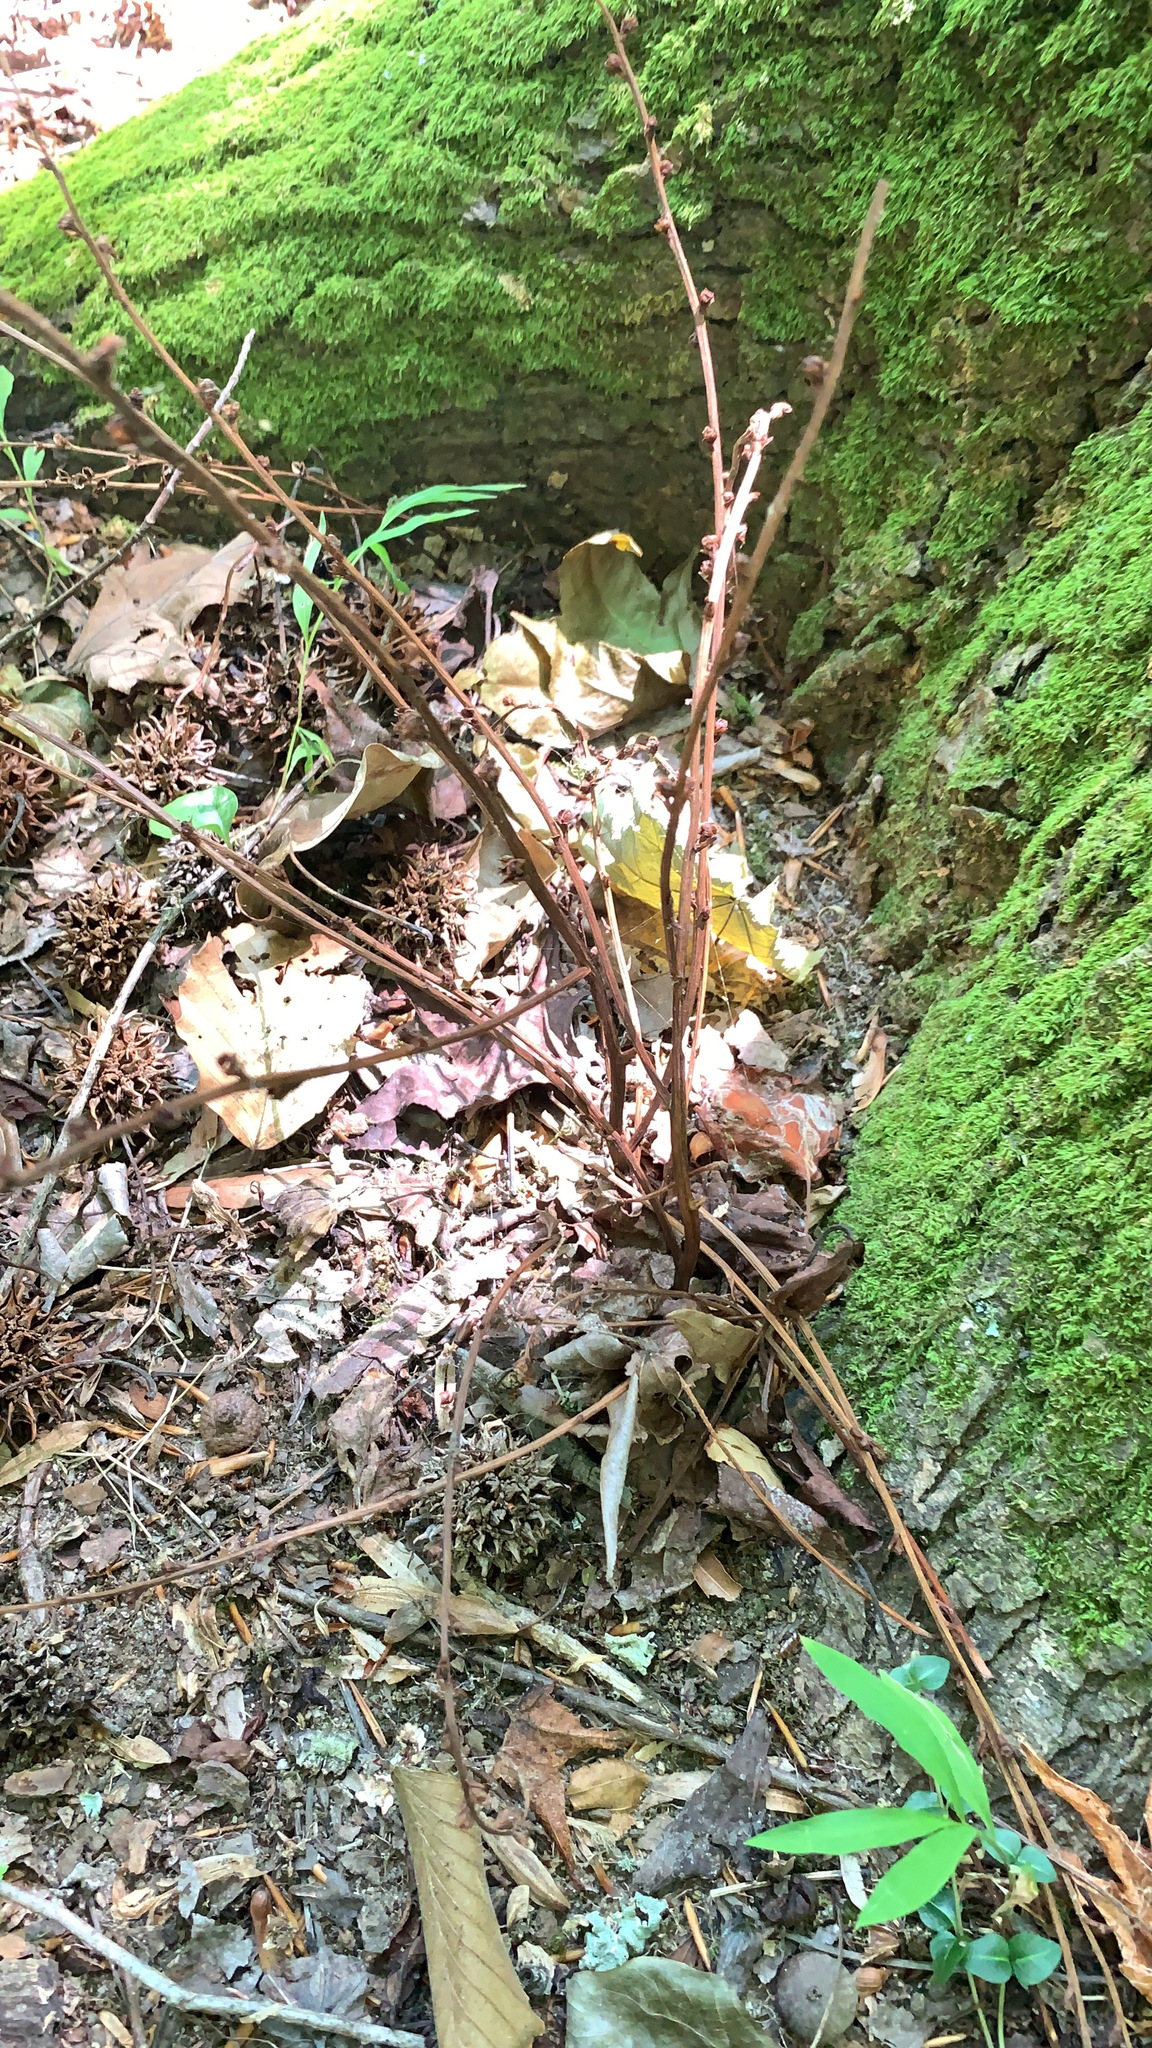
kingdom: Plantae
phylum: Tracheophyta
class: Magnoliopsida
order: Lamiales
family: Orobanchaceae
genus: Epifagus
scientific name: Epifagus virginiana
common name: Beechdrops
